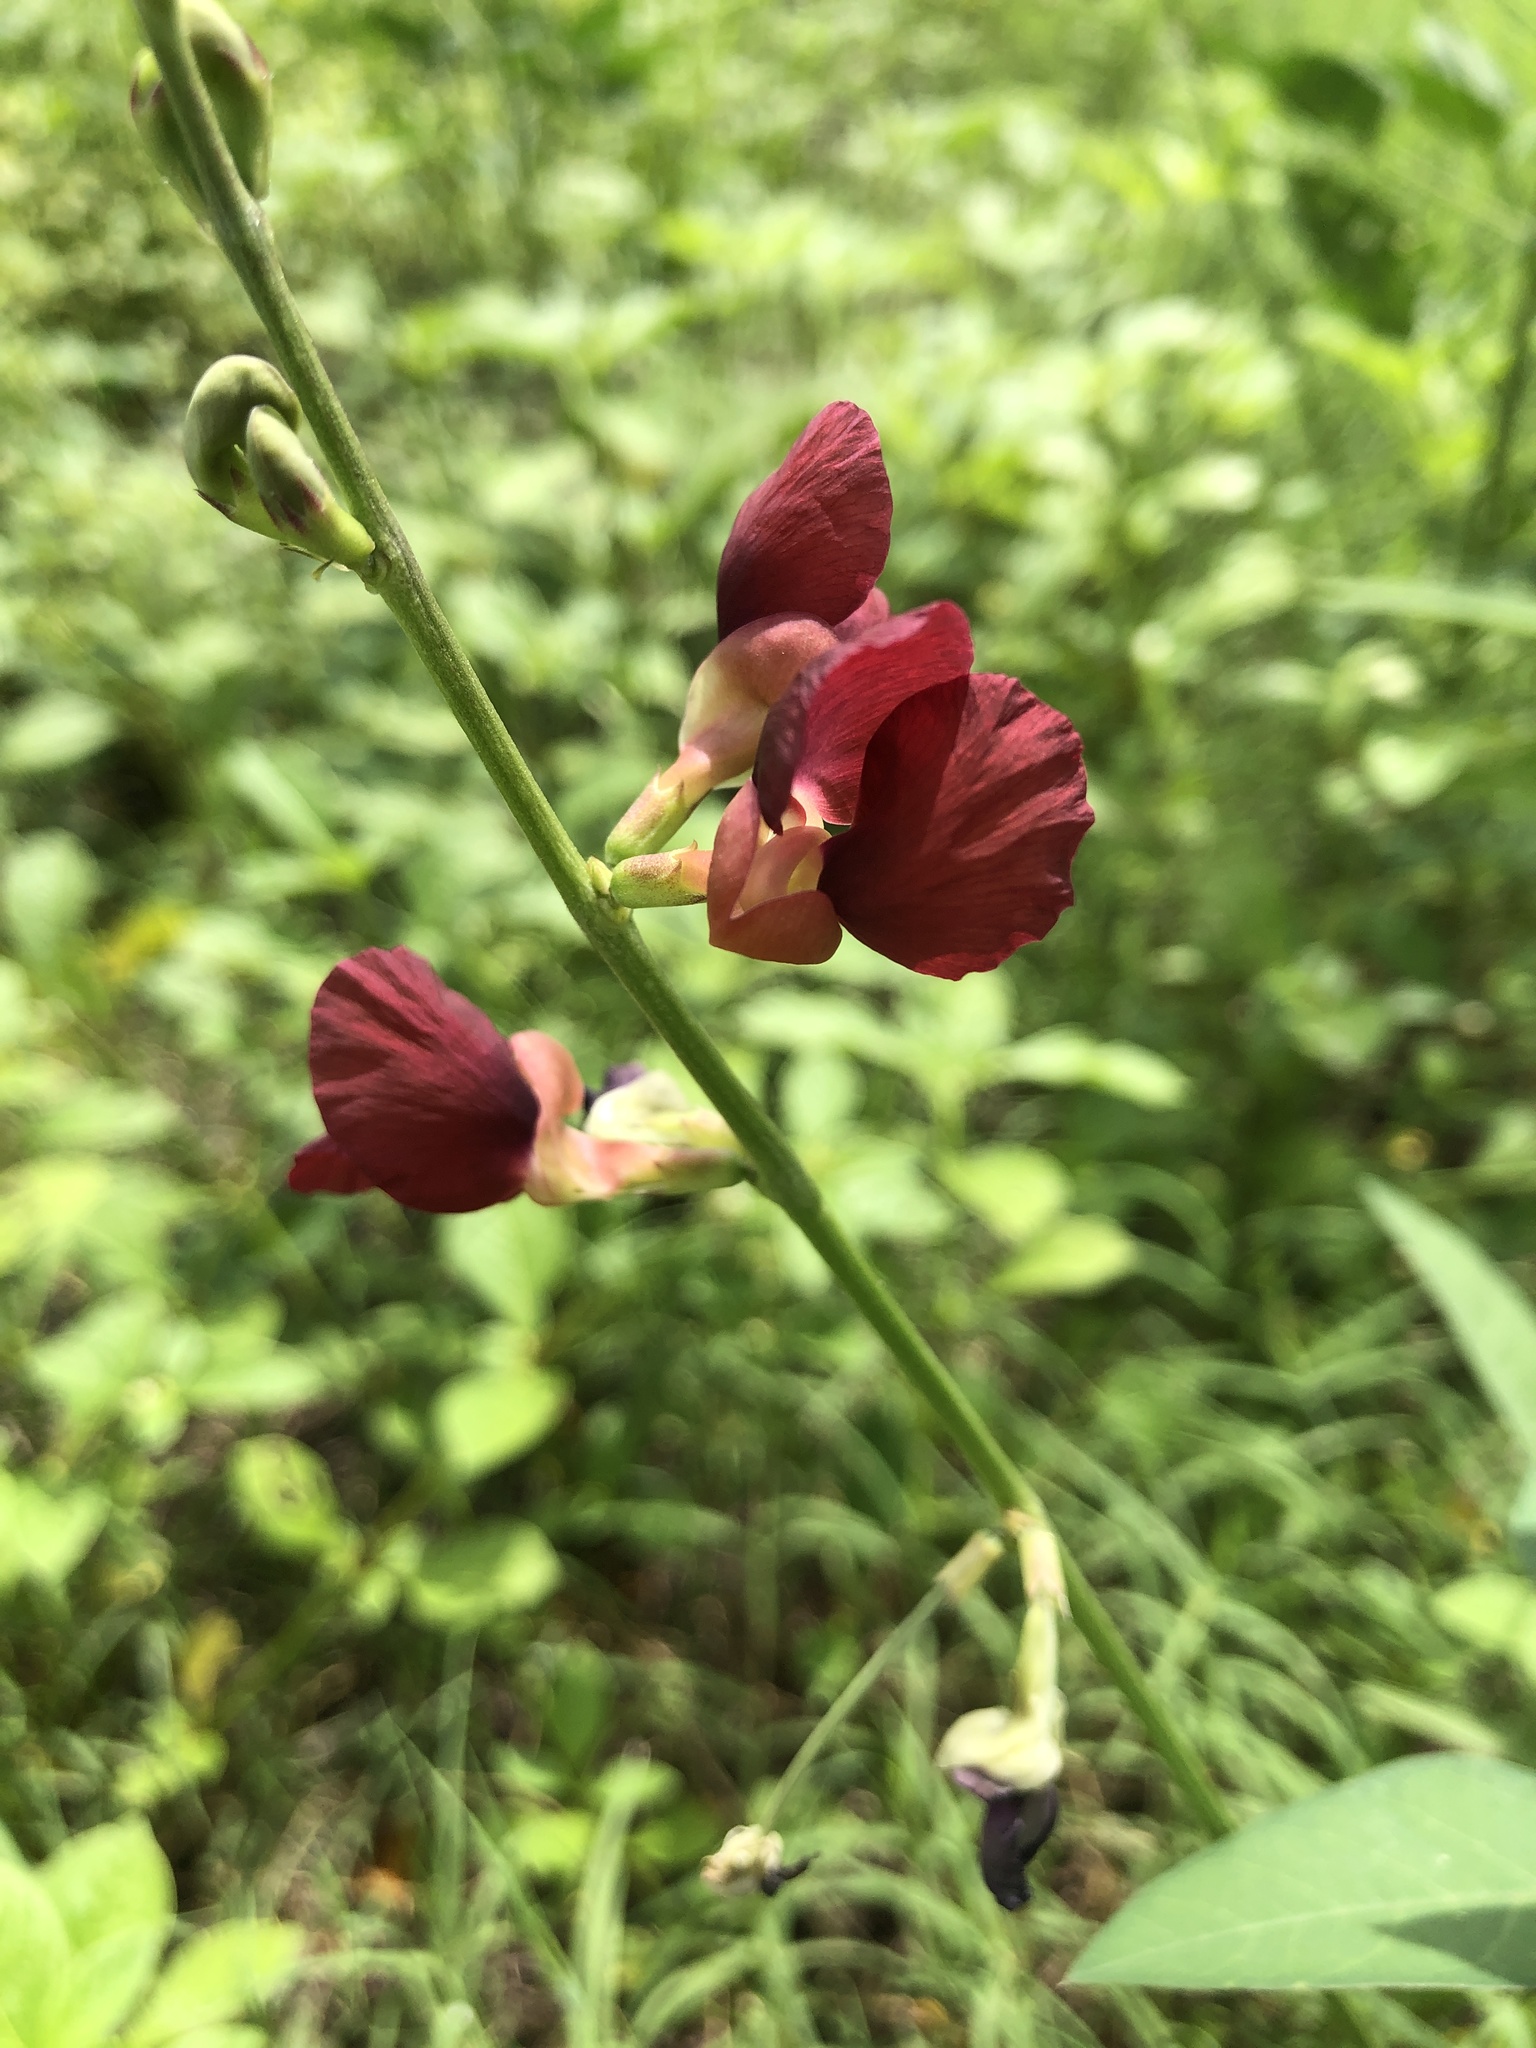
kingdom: Plantae
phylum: Tracheophyta
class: Magnoliopsida
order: Fabales
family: Fabaceae
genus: Macroptilium
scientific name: Macroptilium lathyroides
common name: Wild bushbean
